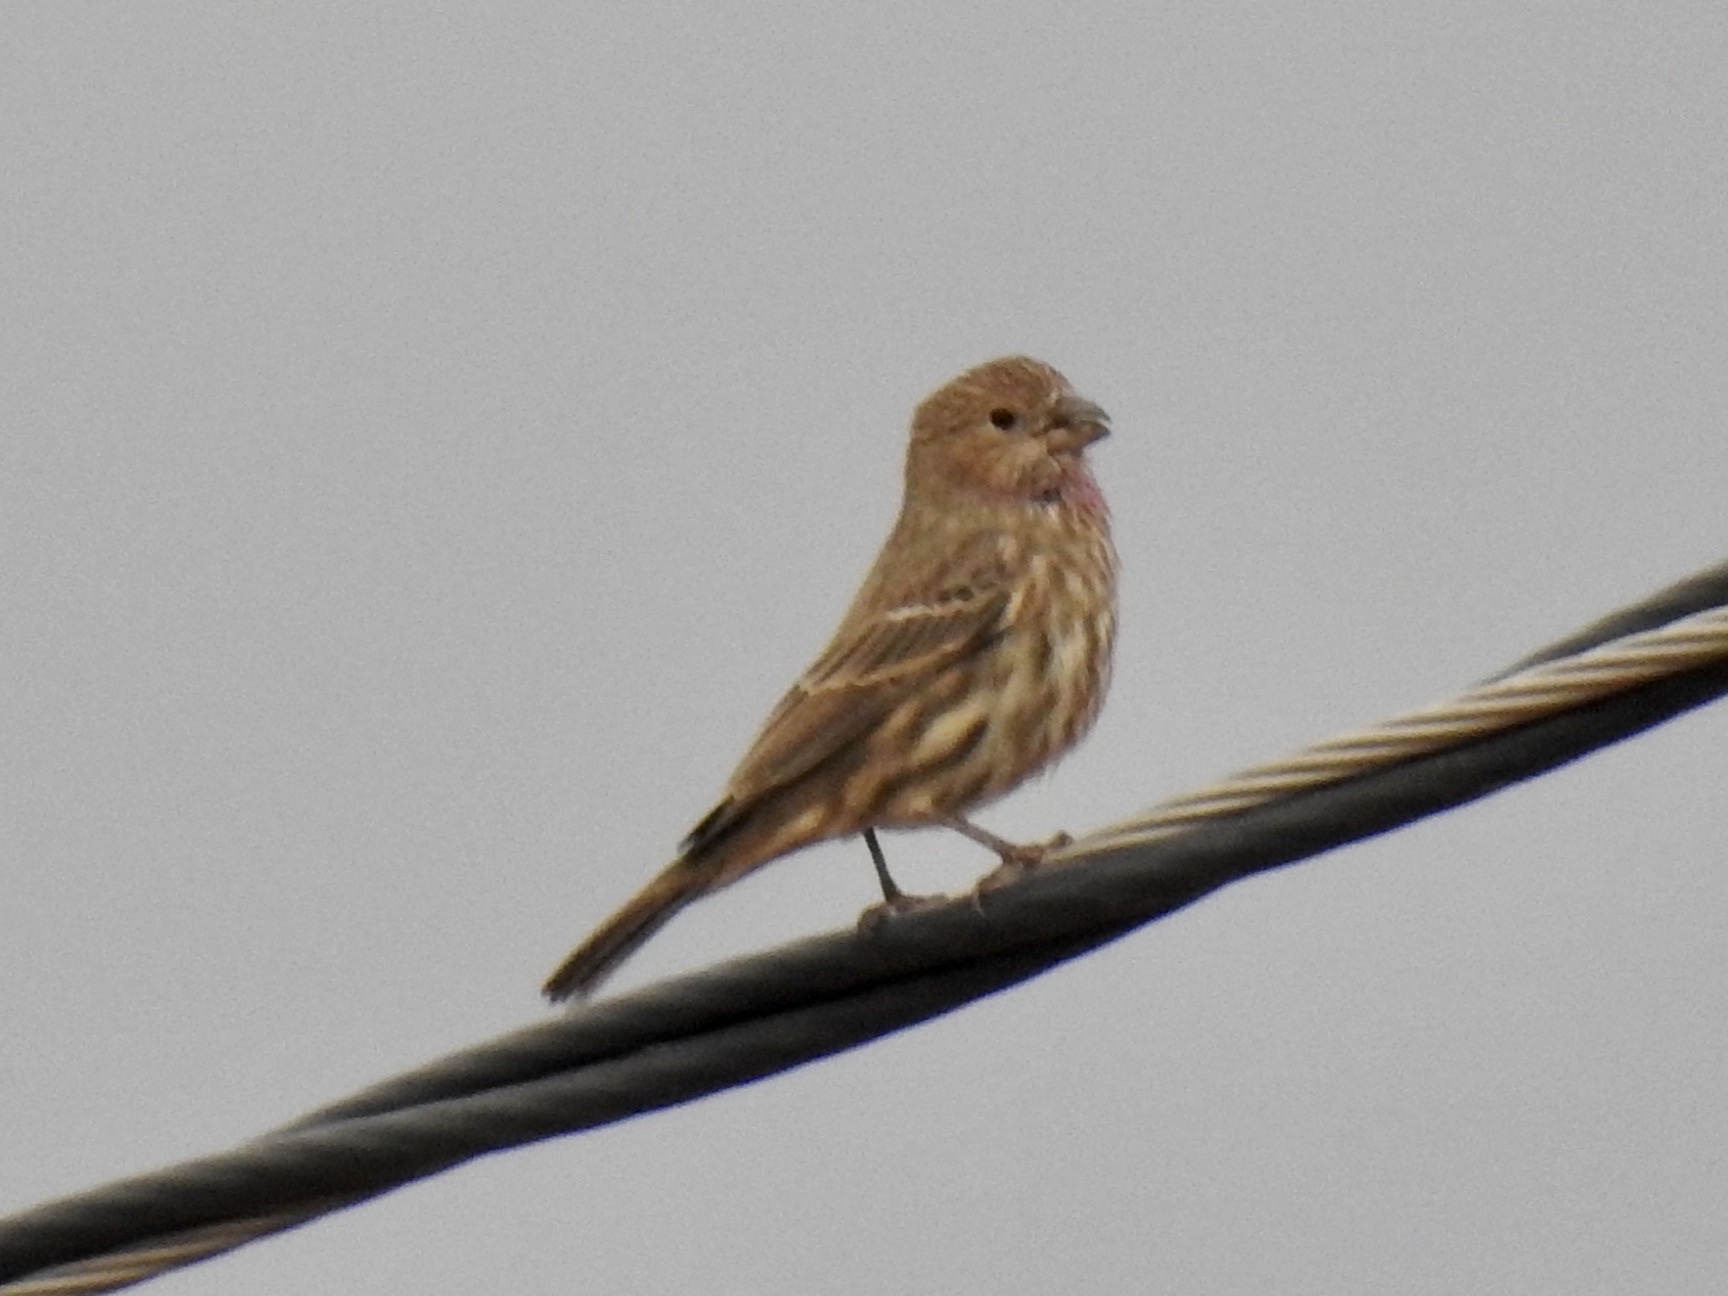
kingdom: Animalia
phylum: Chordata
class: Aves
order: Passeriformes
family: Fringillidae
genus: Haemorhous
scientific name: Haemorhous mexicanus
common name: House finch
